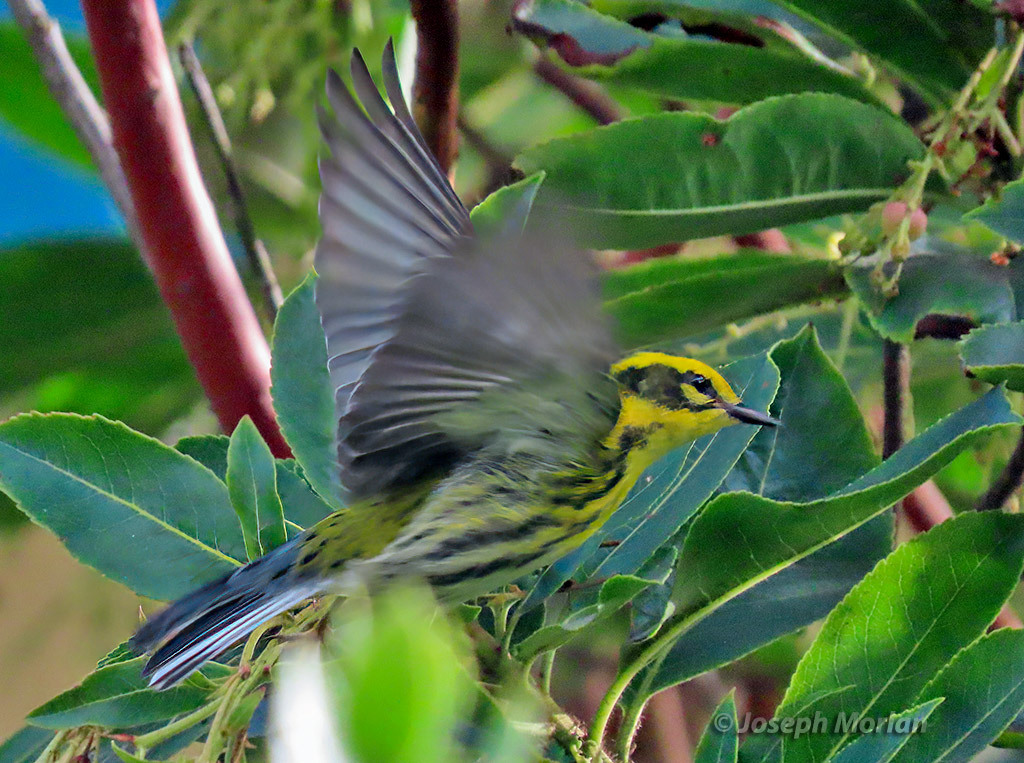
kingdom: Animalia
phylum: Chordata
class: Aves
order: Passeriformes
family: Parulidae
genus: Setophaga
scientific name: Setophaga townsendi
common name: Townsend's warbler
